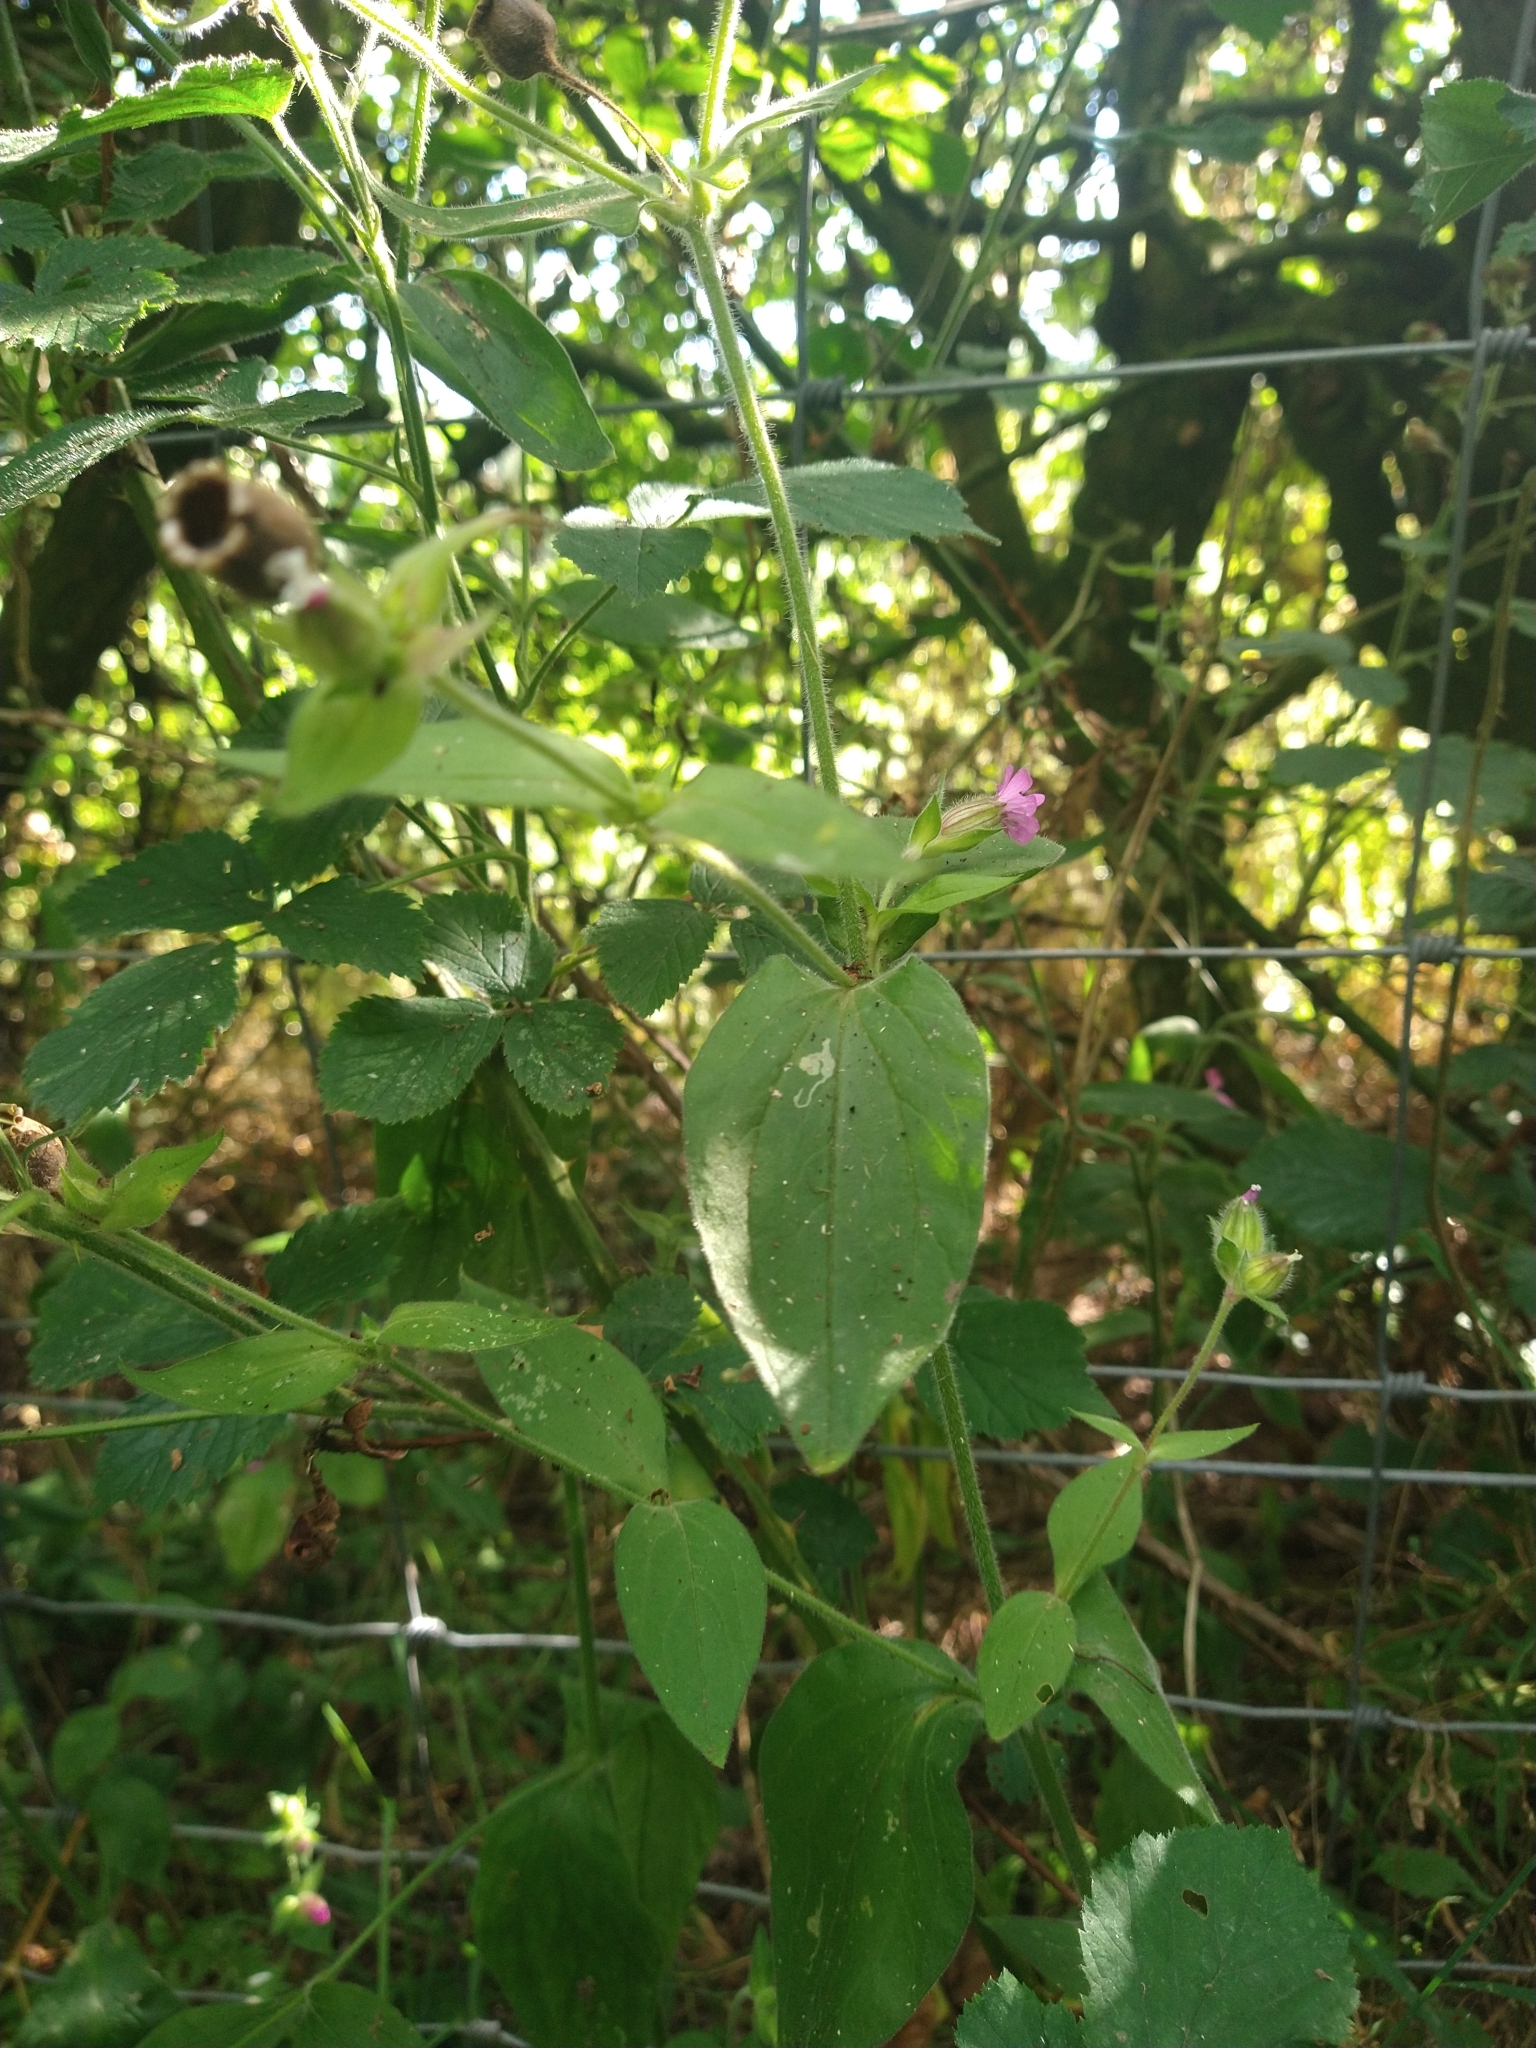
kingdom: Plantae
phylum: Tracheophyta
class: Magnoliopsida
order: Caryophyllales
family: Caryophyllaceae
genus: Silene
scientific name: Silene dioica
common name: Red campion
